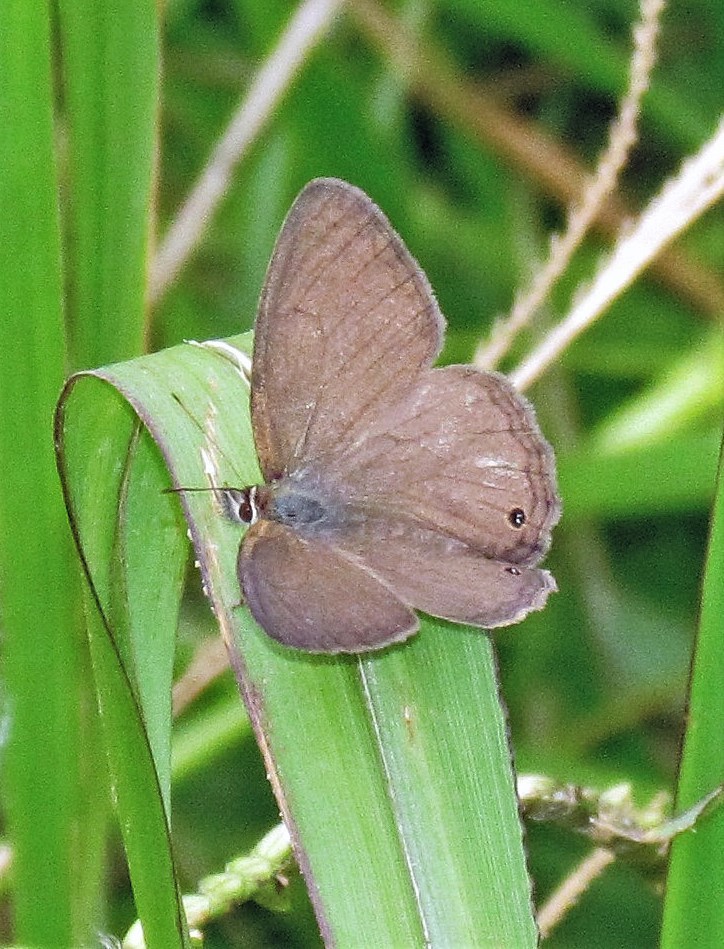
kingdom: Animalia
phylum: Arthropoda
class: Insecta
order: Lepidoptera
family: Nymphalidae
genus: Euptychia
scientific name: Euptychia Cissia eous
